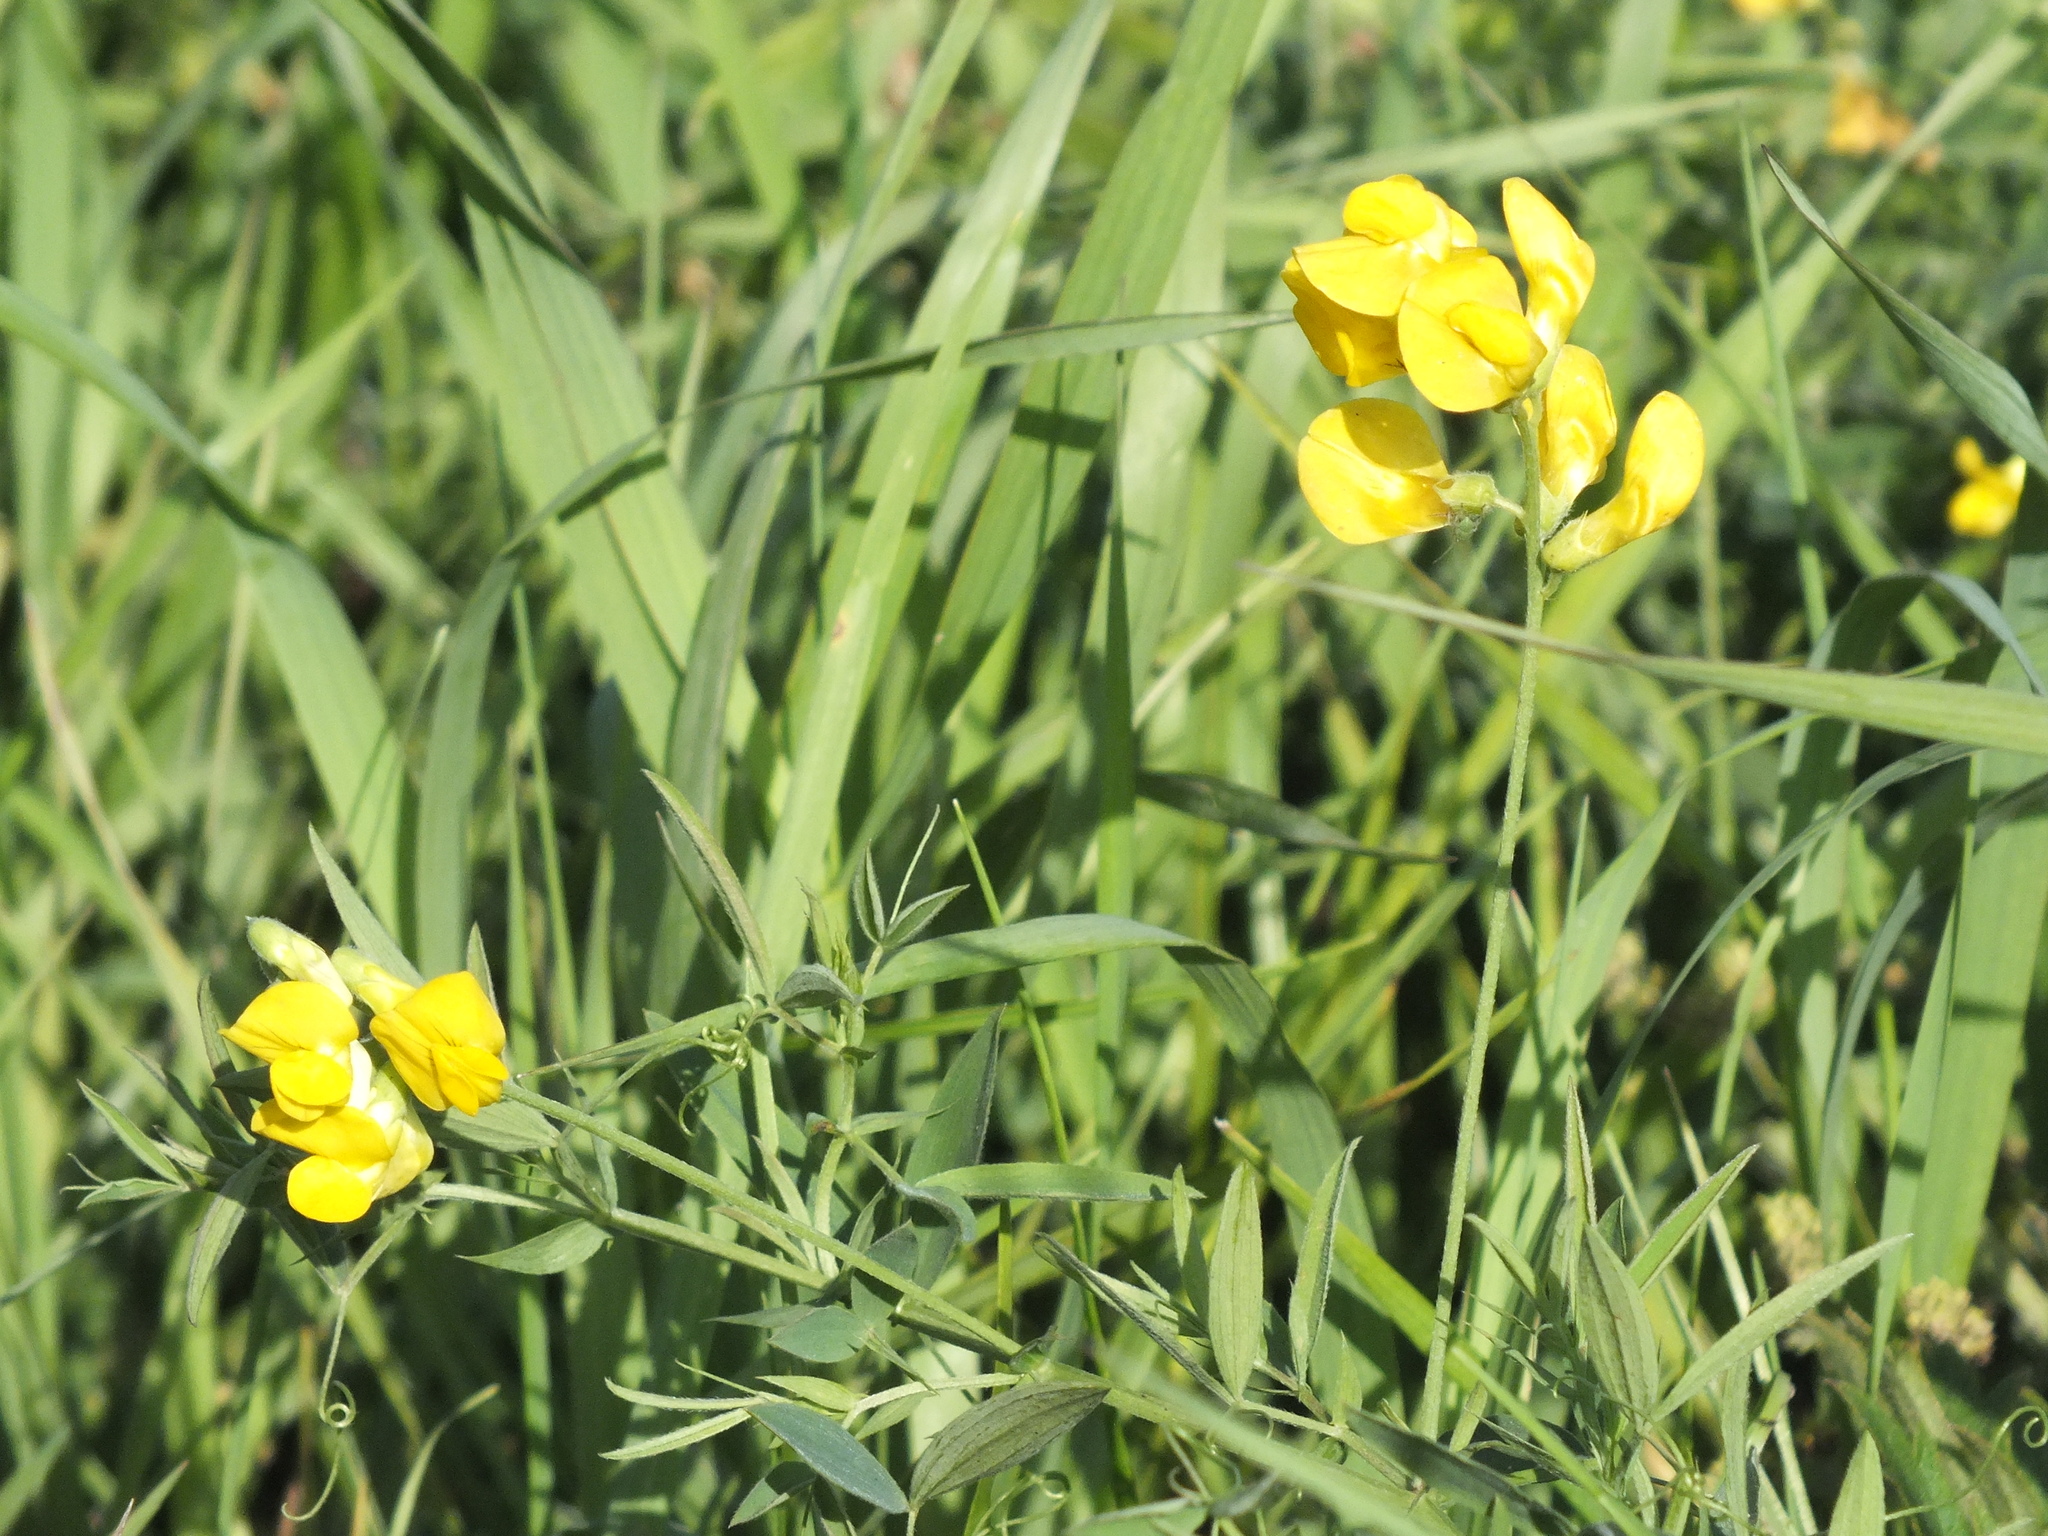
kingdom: Plantae
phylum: Tracheophyta
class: Magnoliopsida
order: Fabales
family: Fabaceae
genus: Lathyrus
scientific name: Lathyrus pratensis
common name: Meadow vetchling
